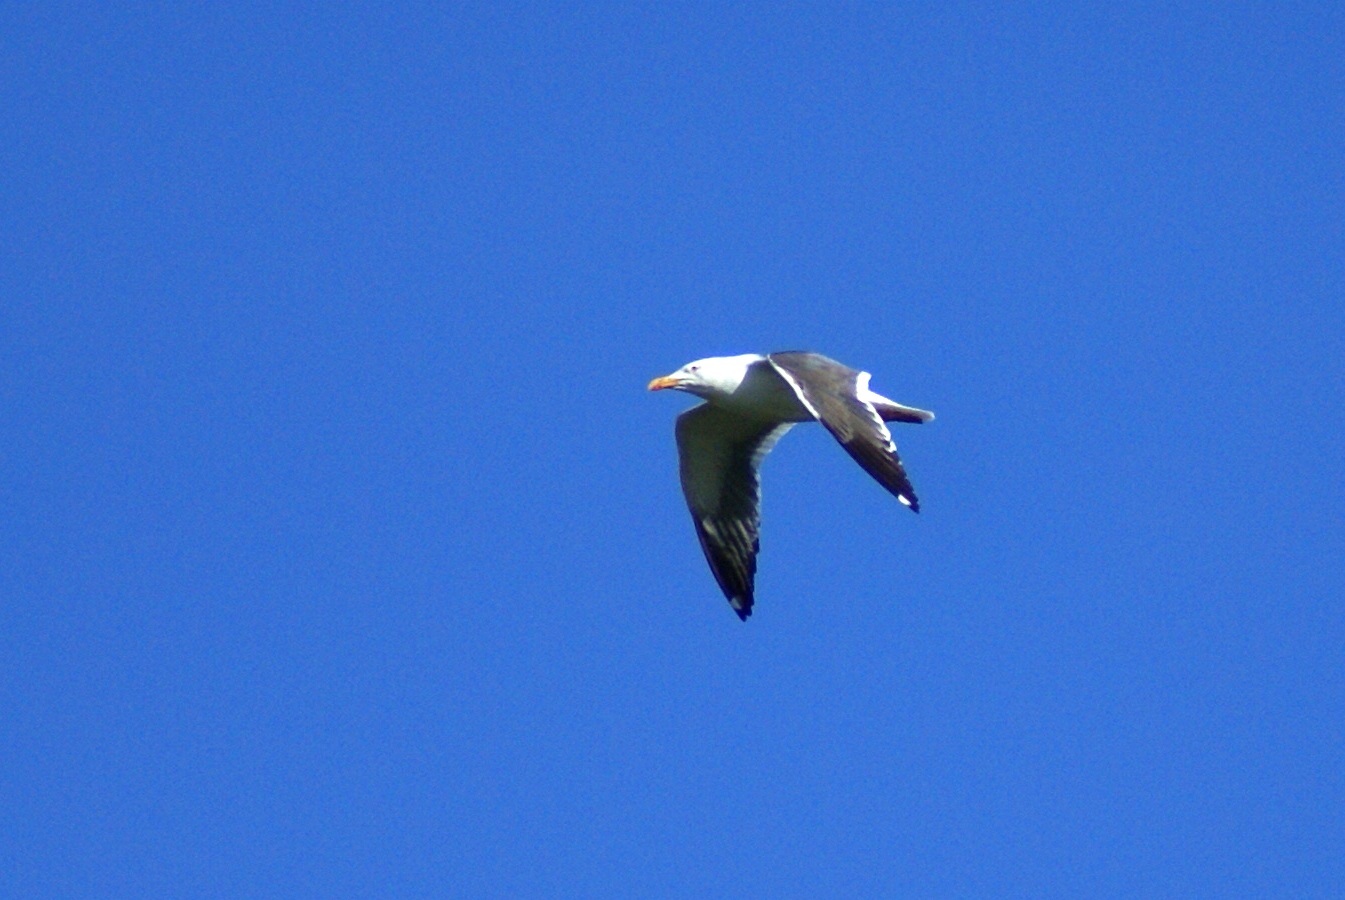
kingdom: Animalia
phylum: Chordata
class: Aves
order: Charadriiformes
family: Laridae
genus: Larus
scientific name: Larus fuscus
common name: Lesser black-backed gull
